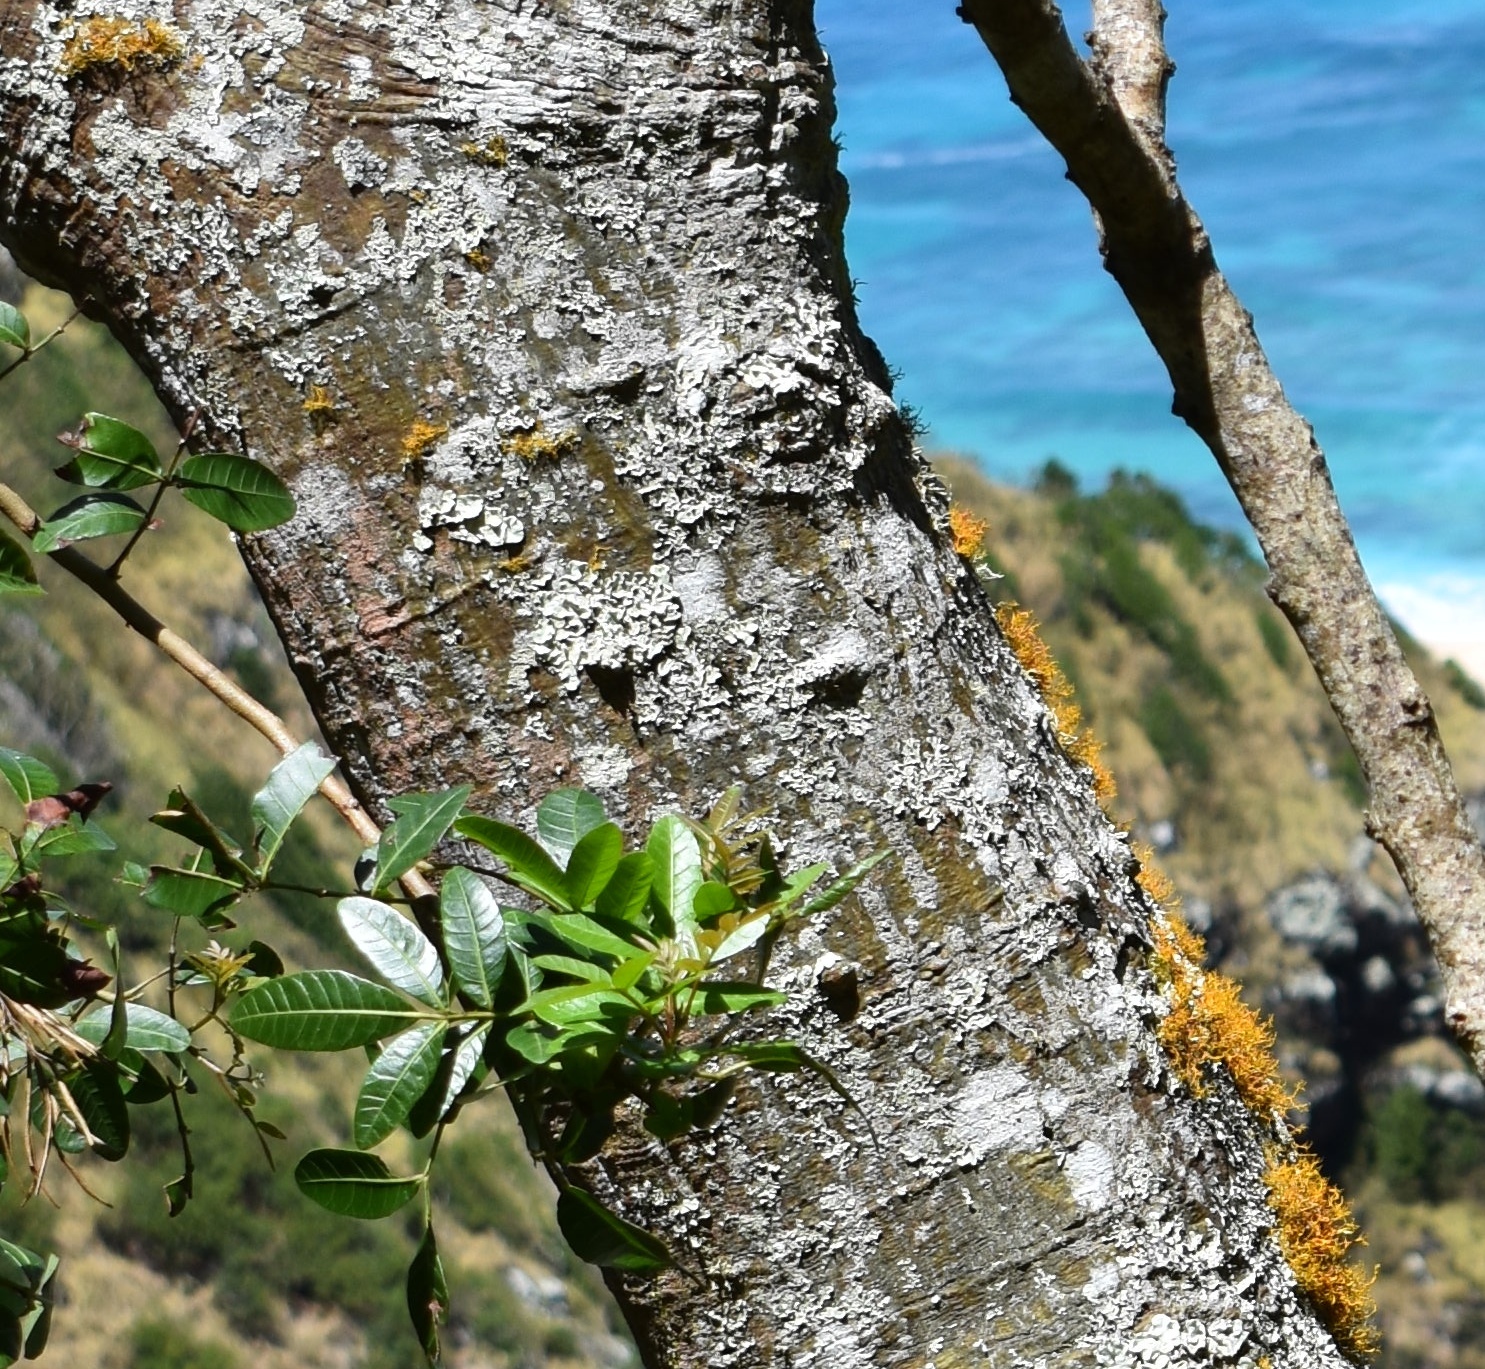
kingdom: Plantae
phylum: Tracheophyta
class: Magnoliopsida
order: Sapindales
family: Anacardiaceae
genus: Schinus
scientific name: Schinus terebinthifolia
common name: Brazilian peppertree
